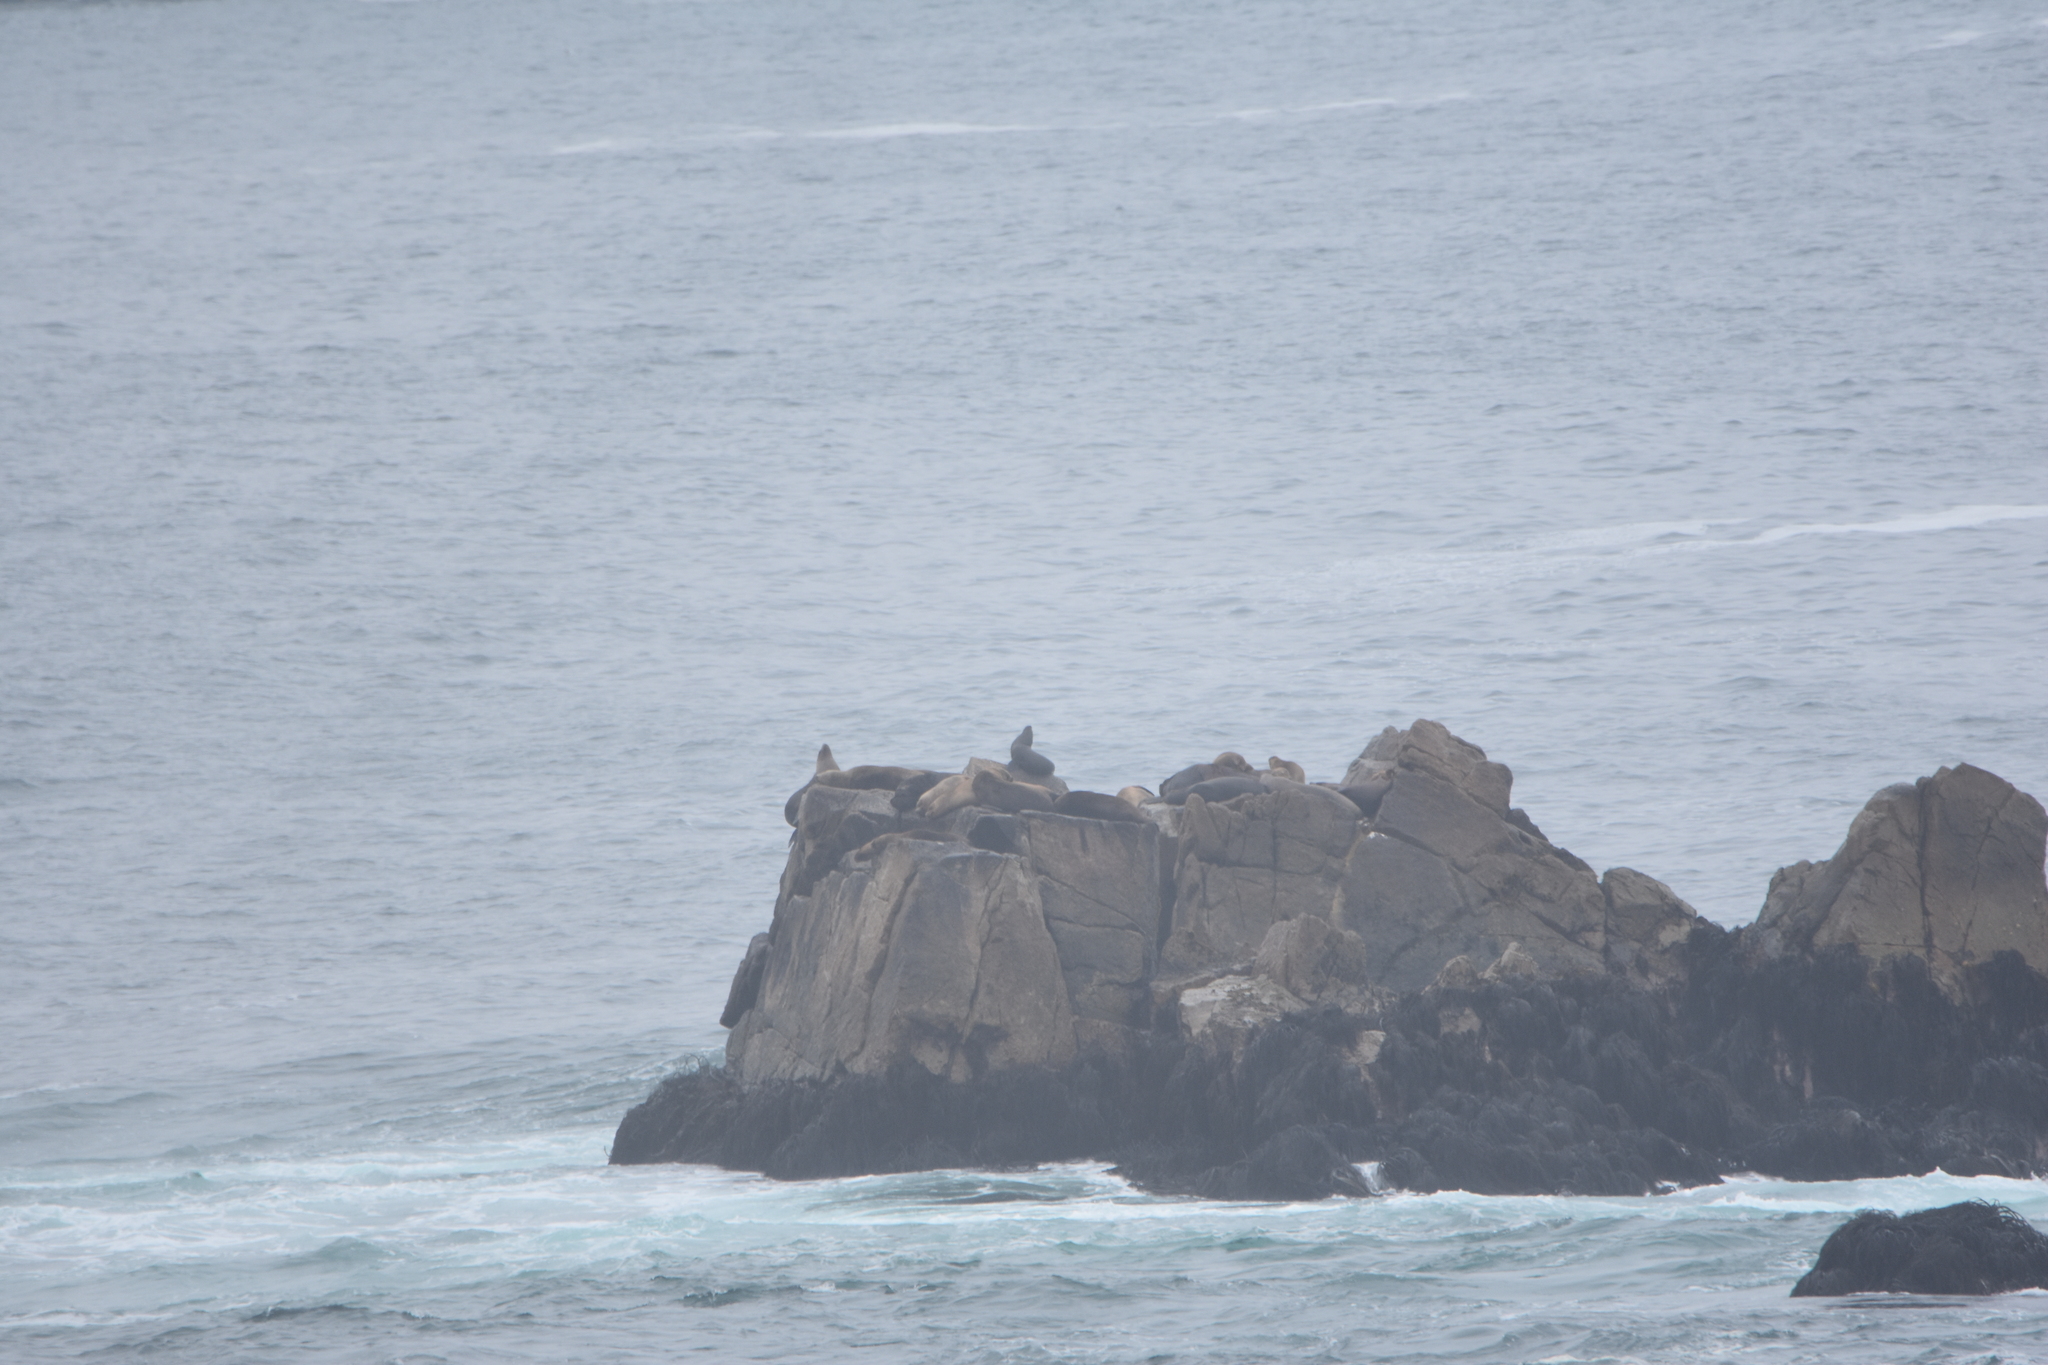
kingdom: Animalia
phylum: Chordata
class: Mammalia
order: Carnivora
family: Otariidae
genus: Otaria
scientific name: Otaria byronia
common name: South american sea lion
